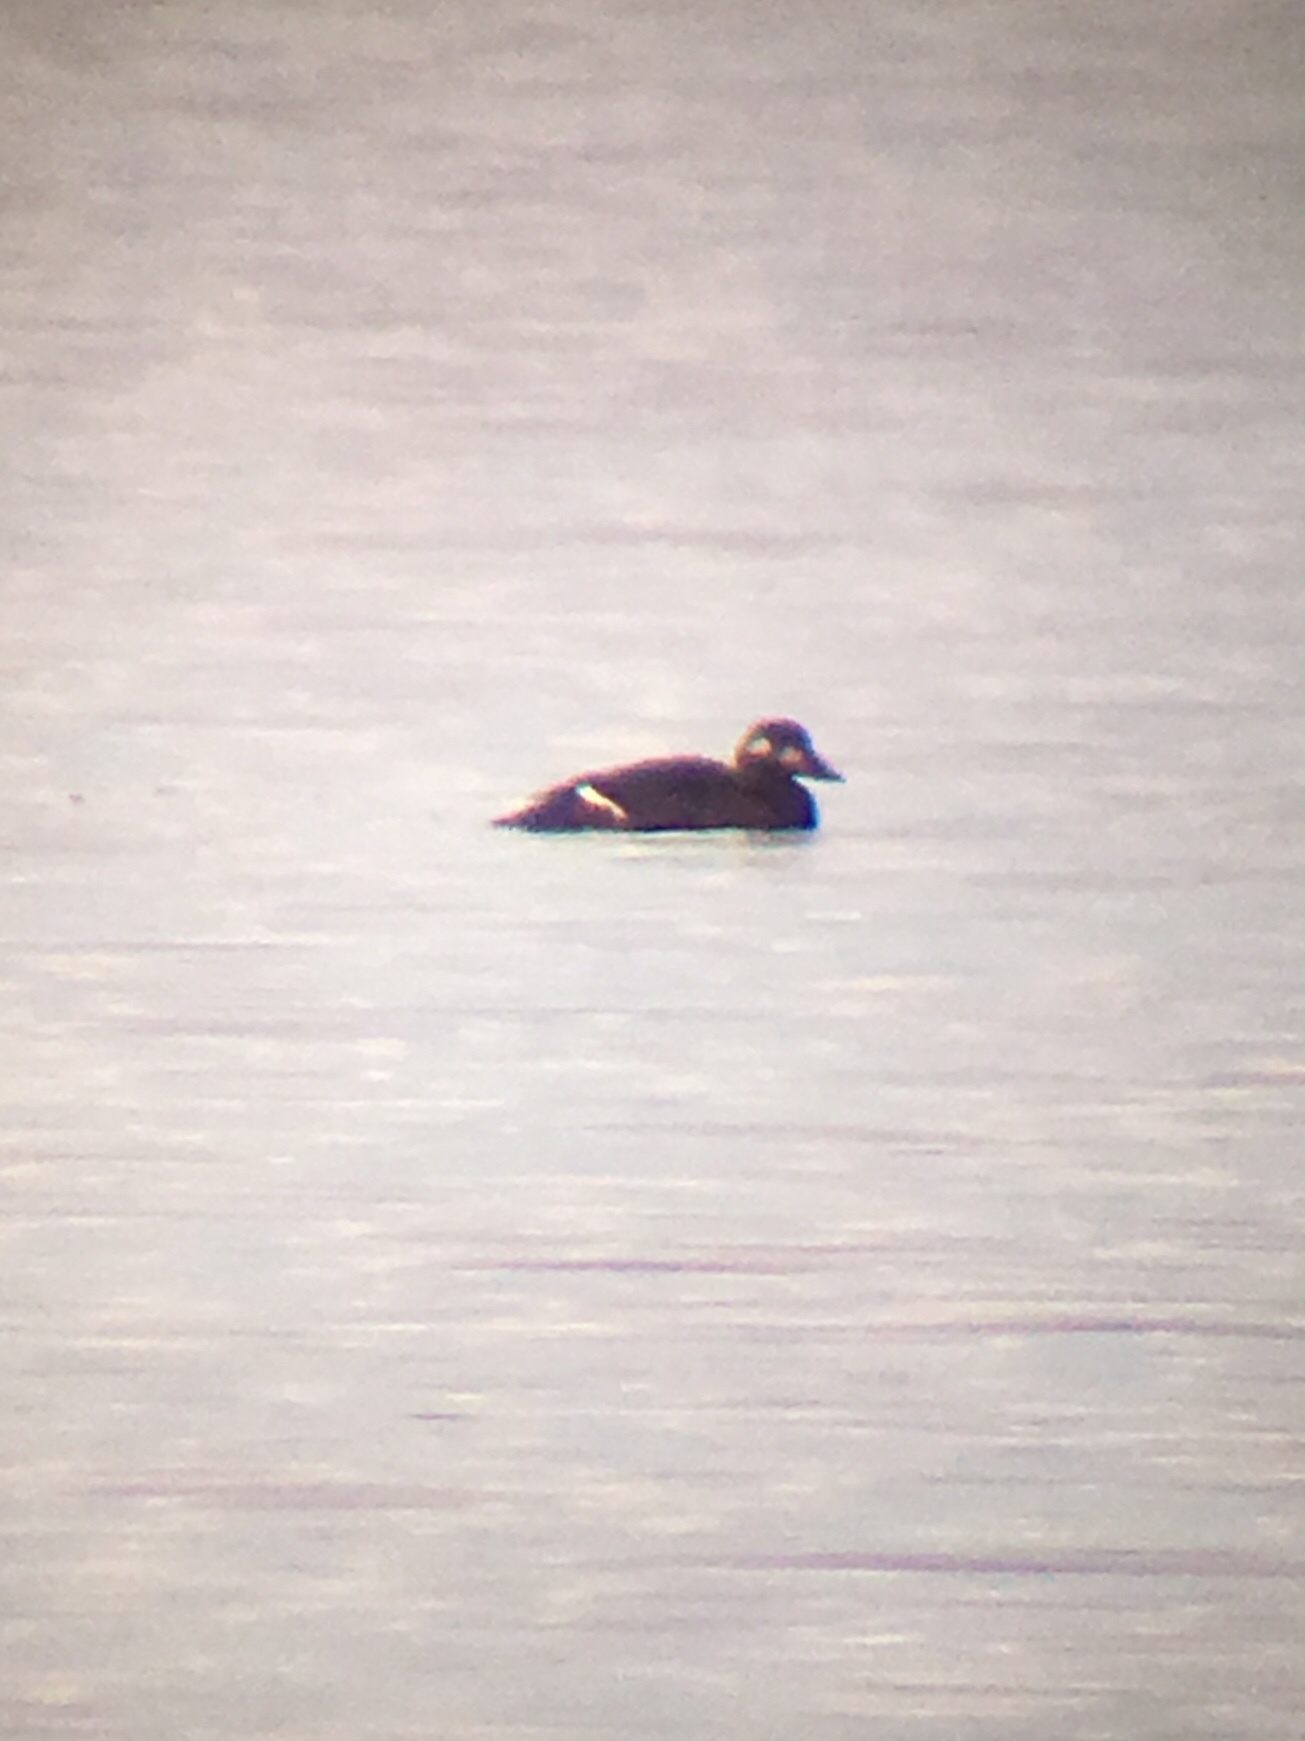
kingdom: Animalia
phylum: Chordata
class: Aves
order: Anseriformes
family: Anatidae
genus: Melanitta
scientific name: Melanitta deglandi
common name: White-winged scoter
